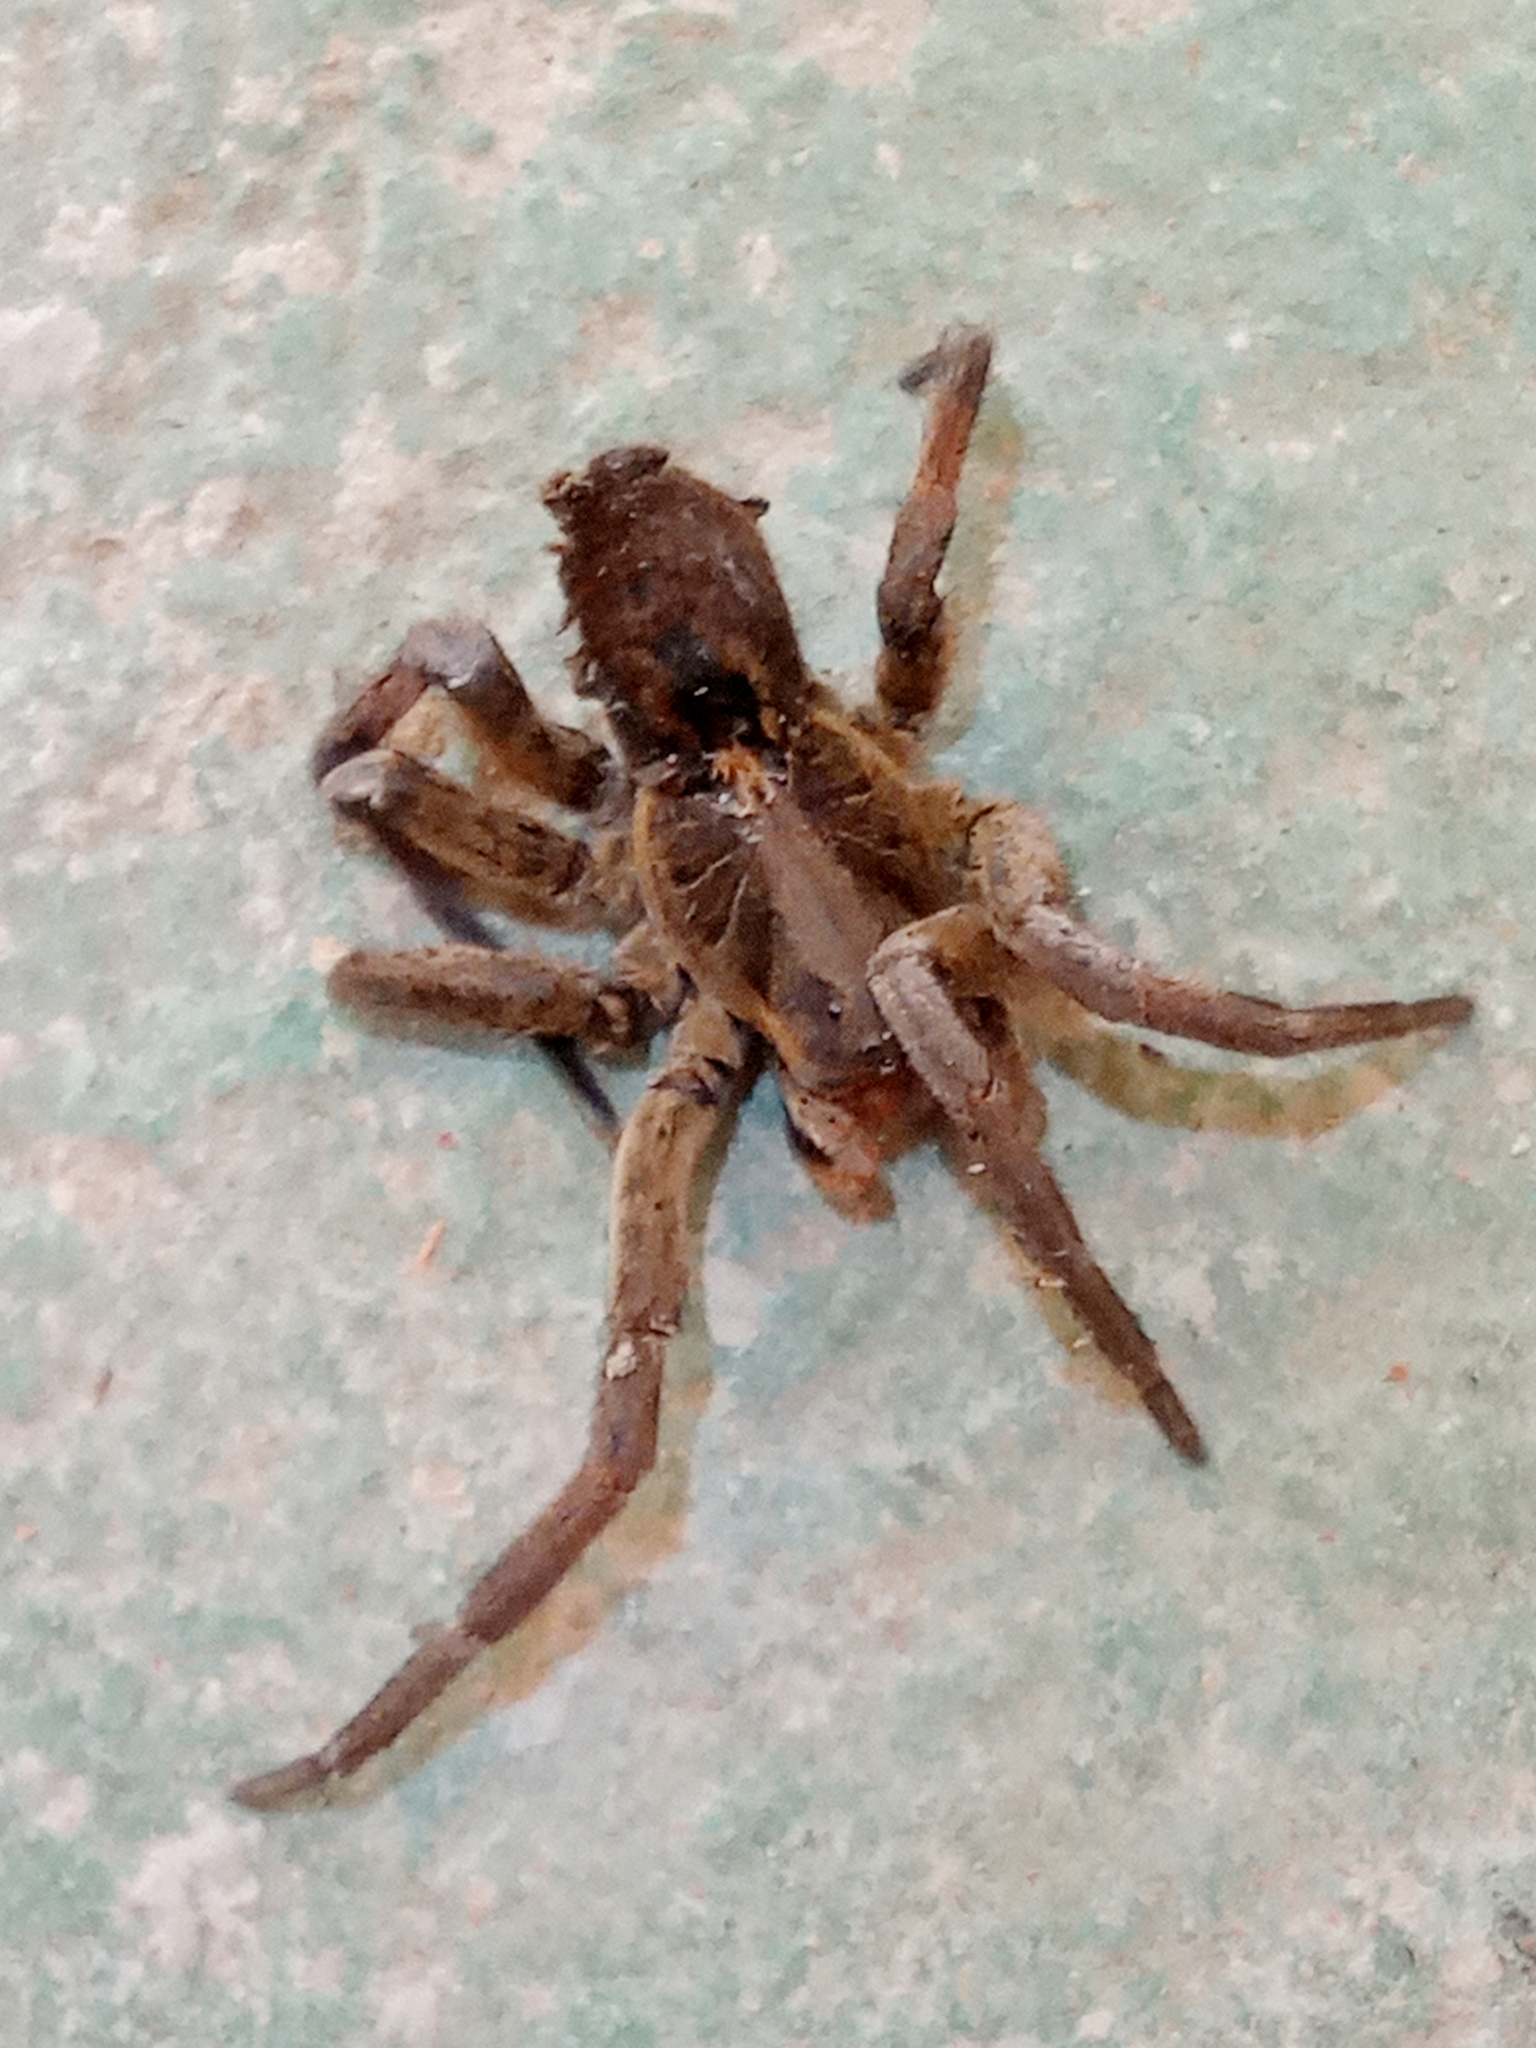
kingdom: Animalia
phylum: Arthropoda
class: Arachnida
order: Araneae
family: Lycosidae
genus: Lycosa
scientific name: Lycosa erythrognatha
